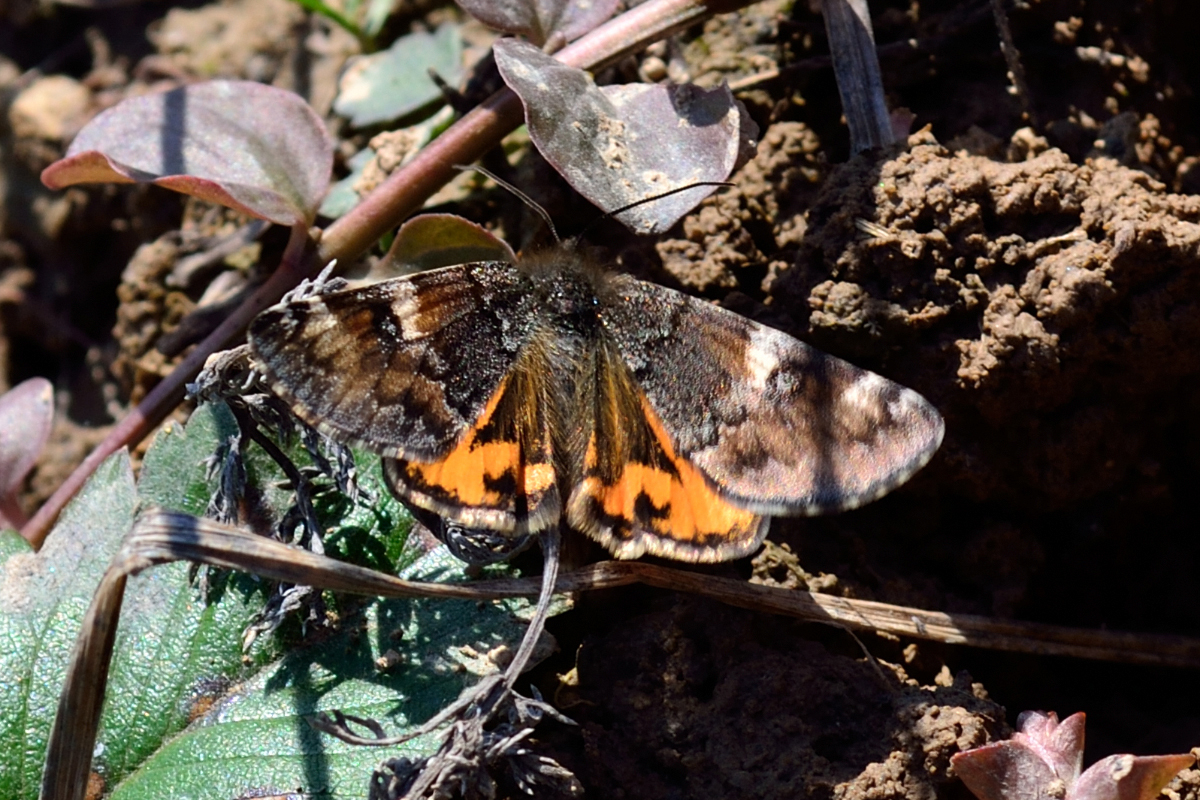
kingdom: Animalia
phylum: Arthropoda
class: Insecta
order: Lepidoptera
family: Geometridae
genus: Archiearis
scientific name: Archiearis parthenias
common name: Orange underwing
